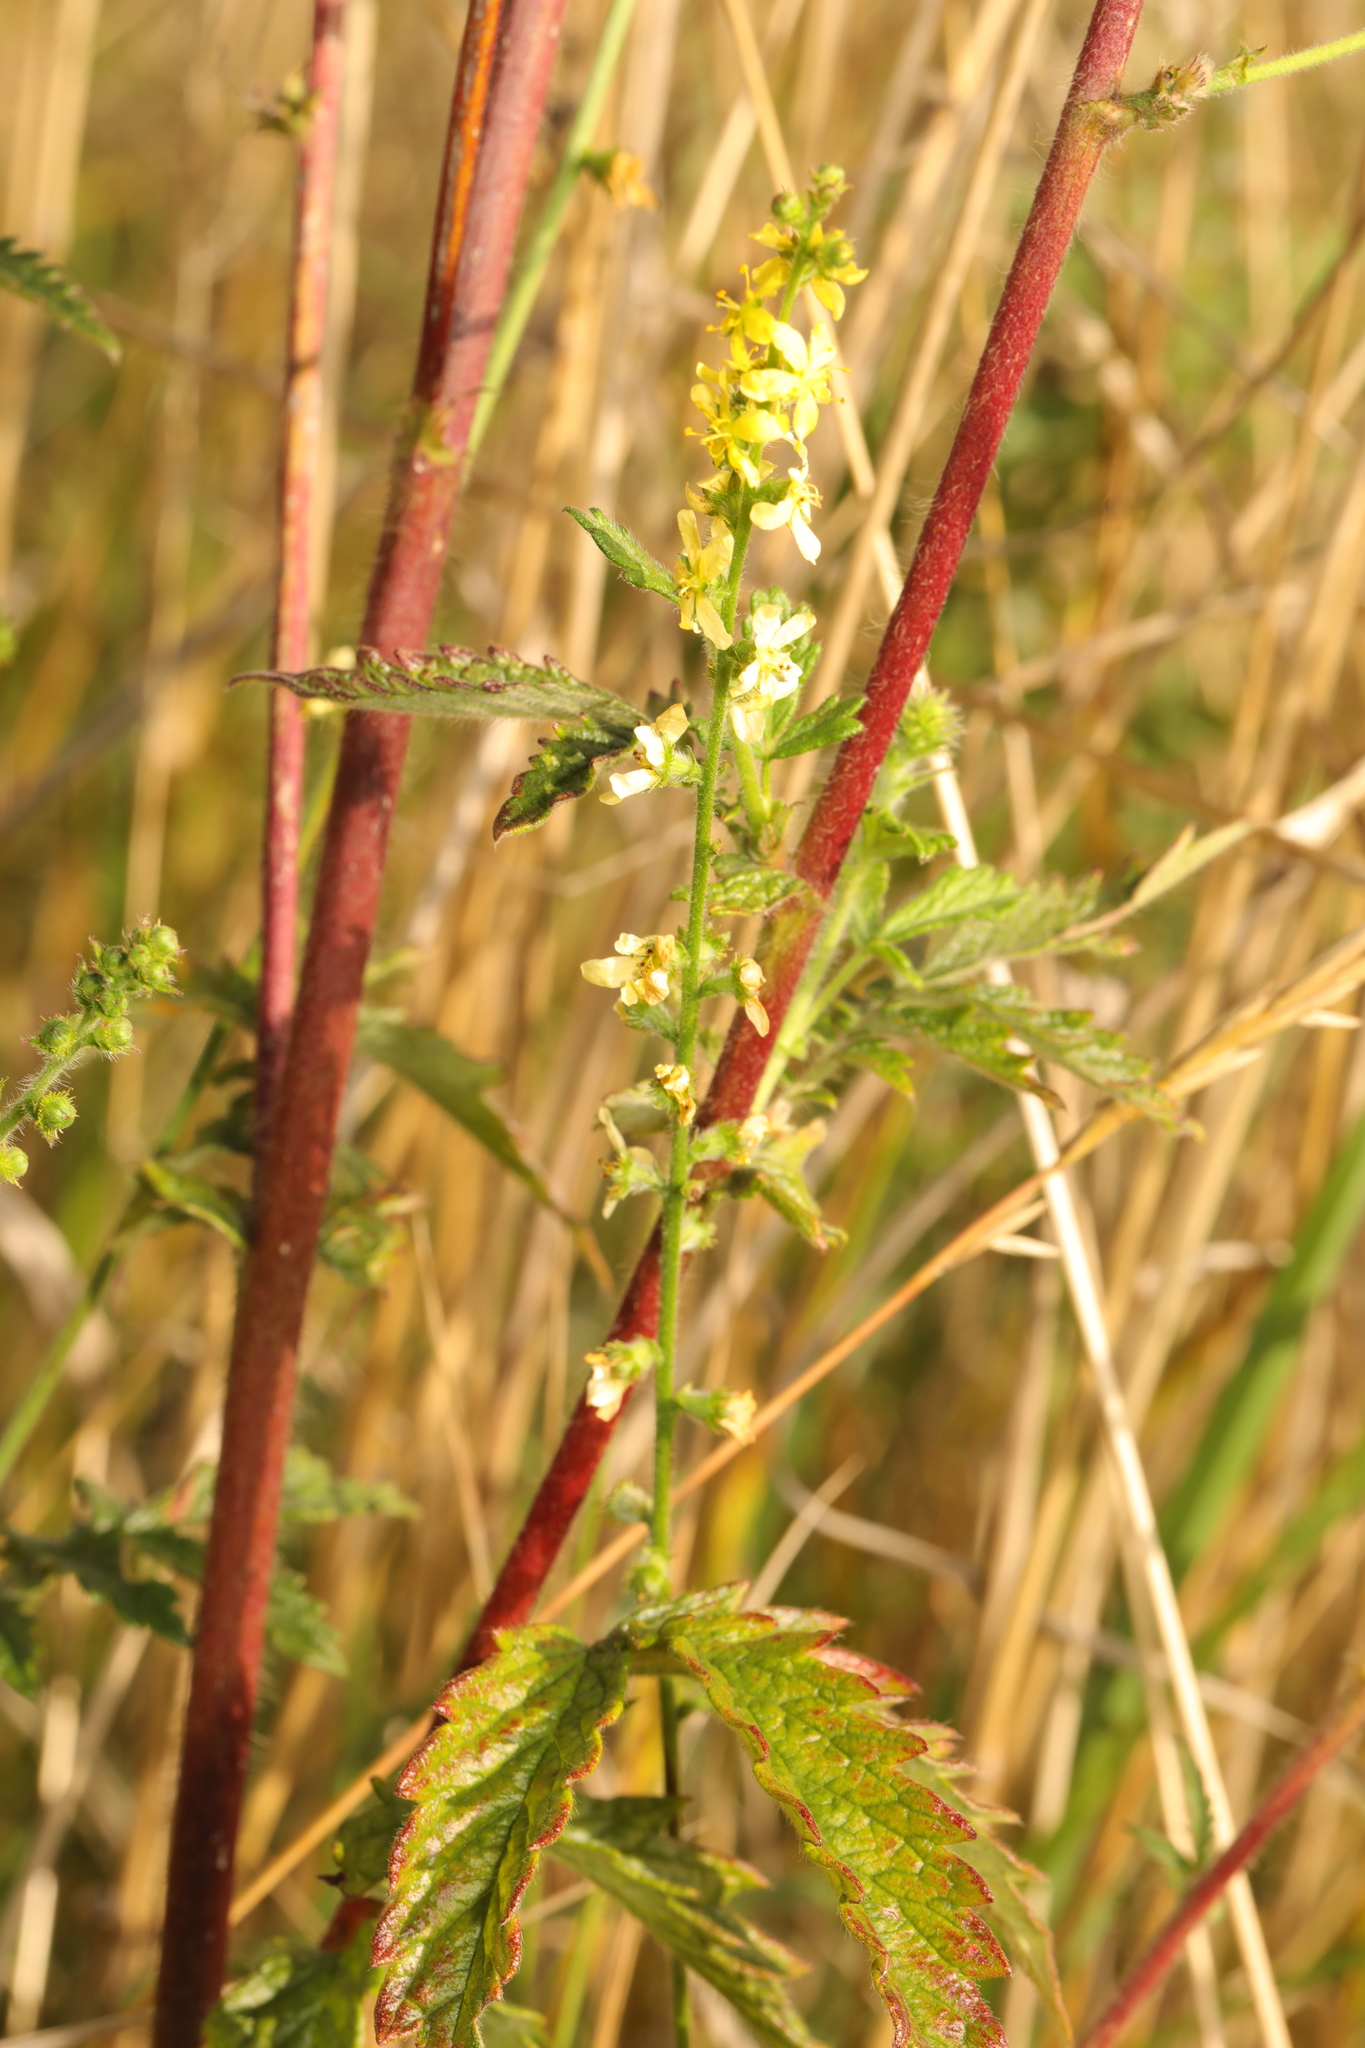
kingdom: Plantae
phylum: Tracheophyta
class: Magnoliopsida
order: Rosales
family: Rosaceae
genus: Agrimonia
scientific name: Agrimonia eupatoria
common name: Agrimony
